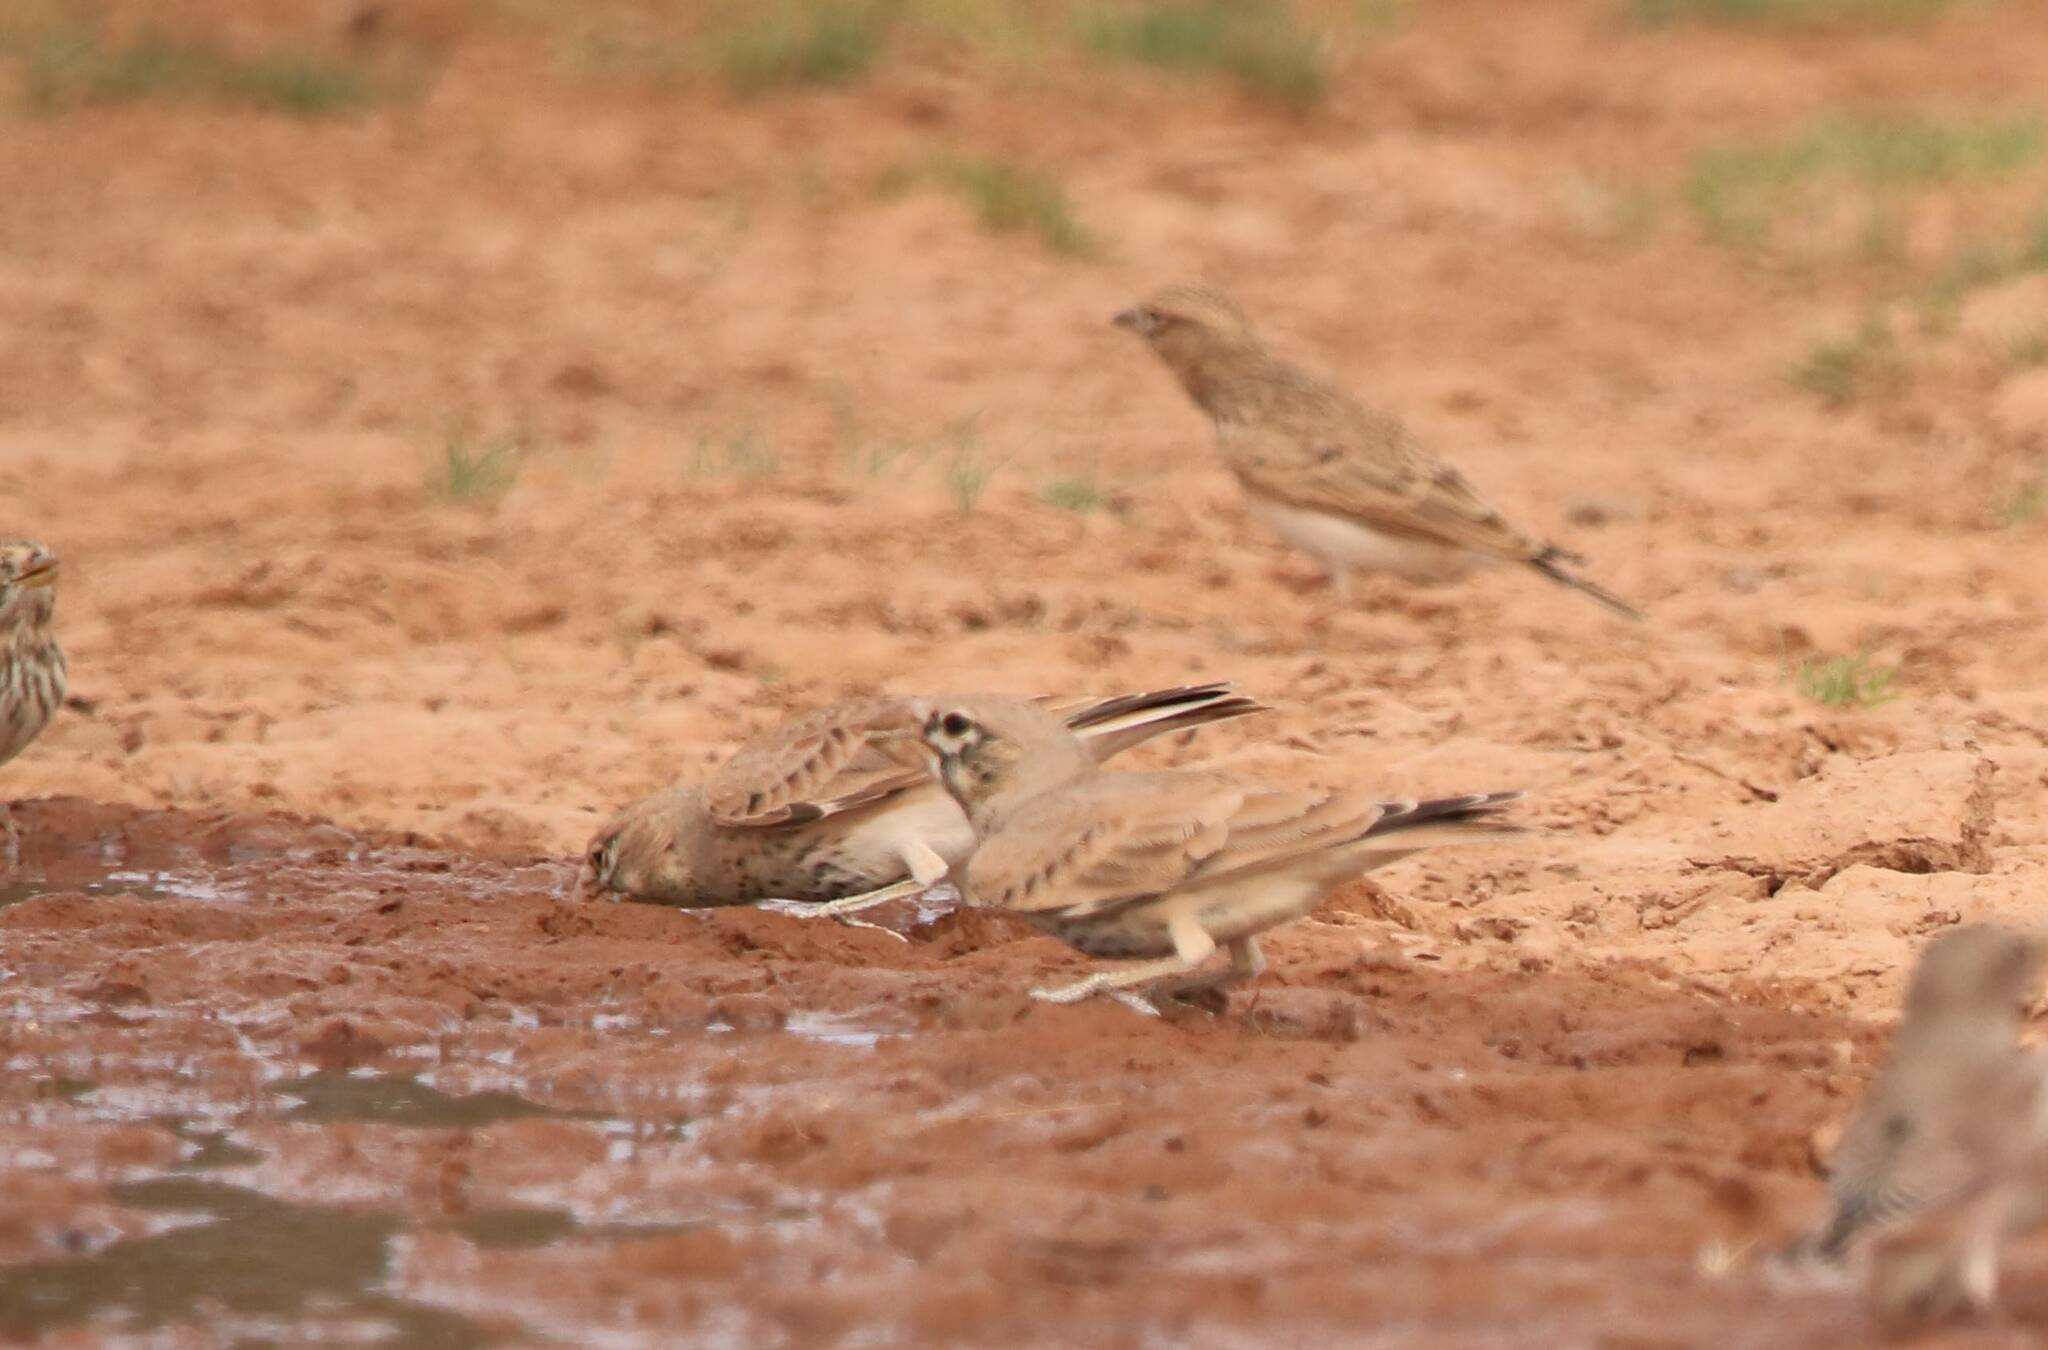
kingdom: Animalia
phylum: Chordata
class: Aves
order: Passeriformes
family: Alaudidae
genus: Ramphocoris
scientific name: Ramphocoris clotbey
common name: Thick-billed lark
